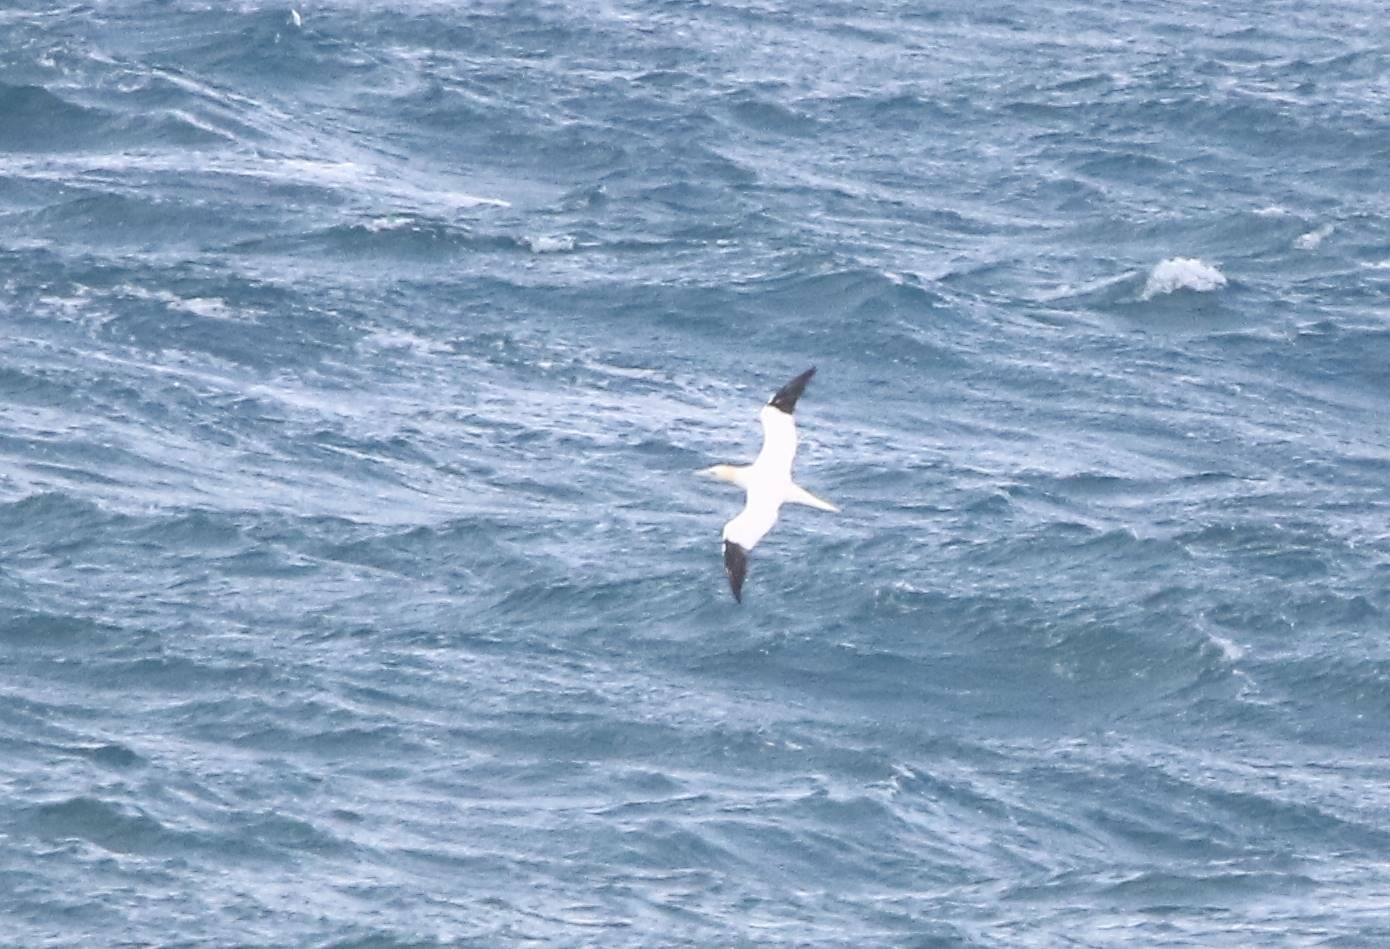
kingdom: Animalia
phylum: Chordata
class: Aves
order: Suliformes
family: Sulidae
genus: Morus
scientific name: Morus bassanus
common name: Northern gannet
